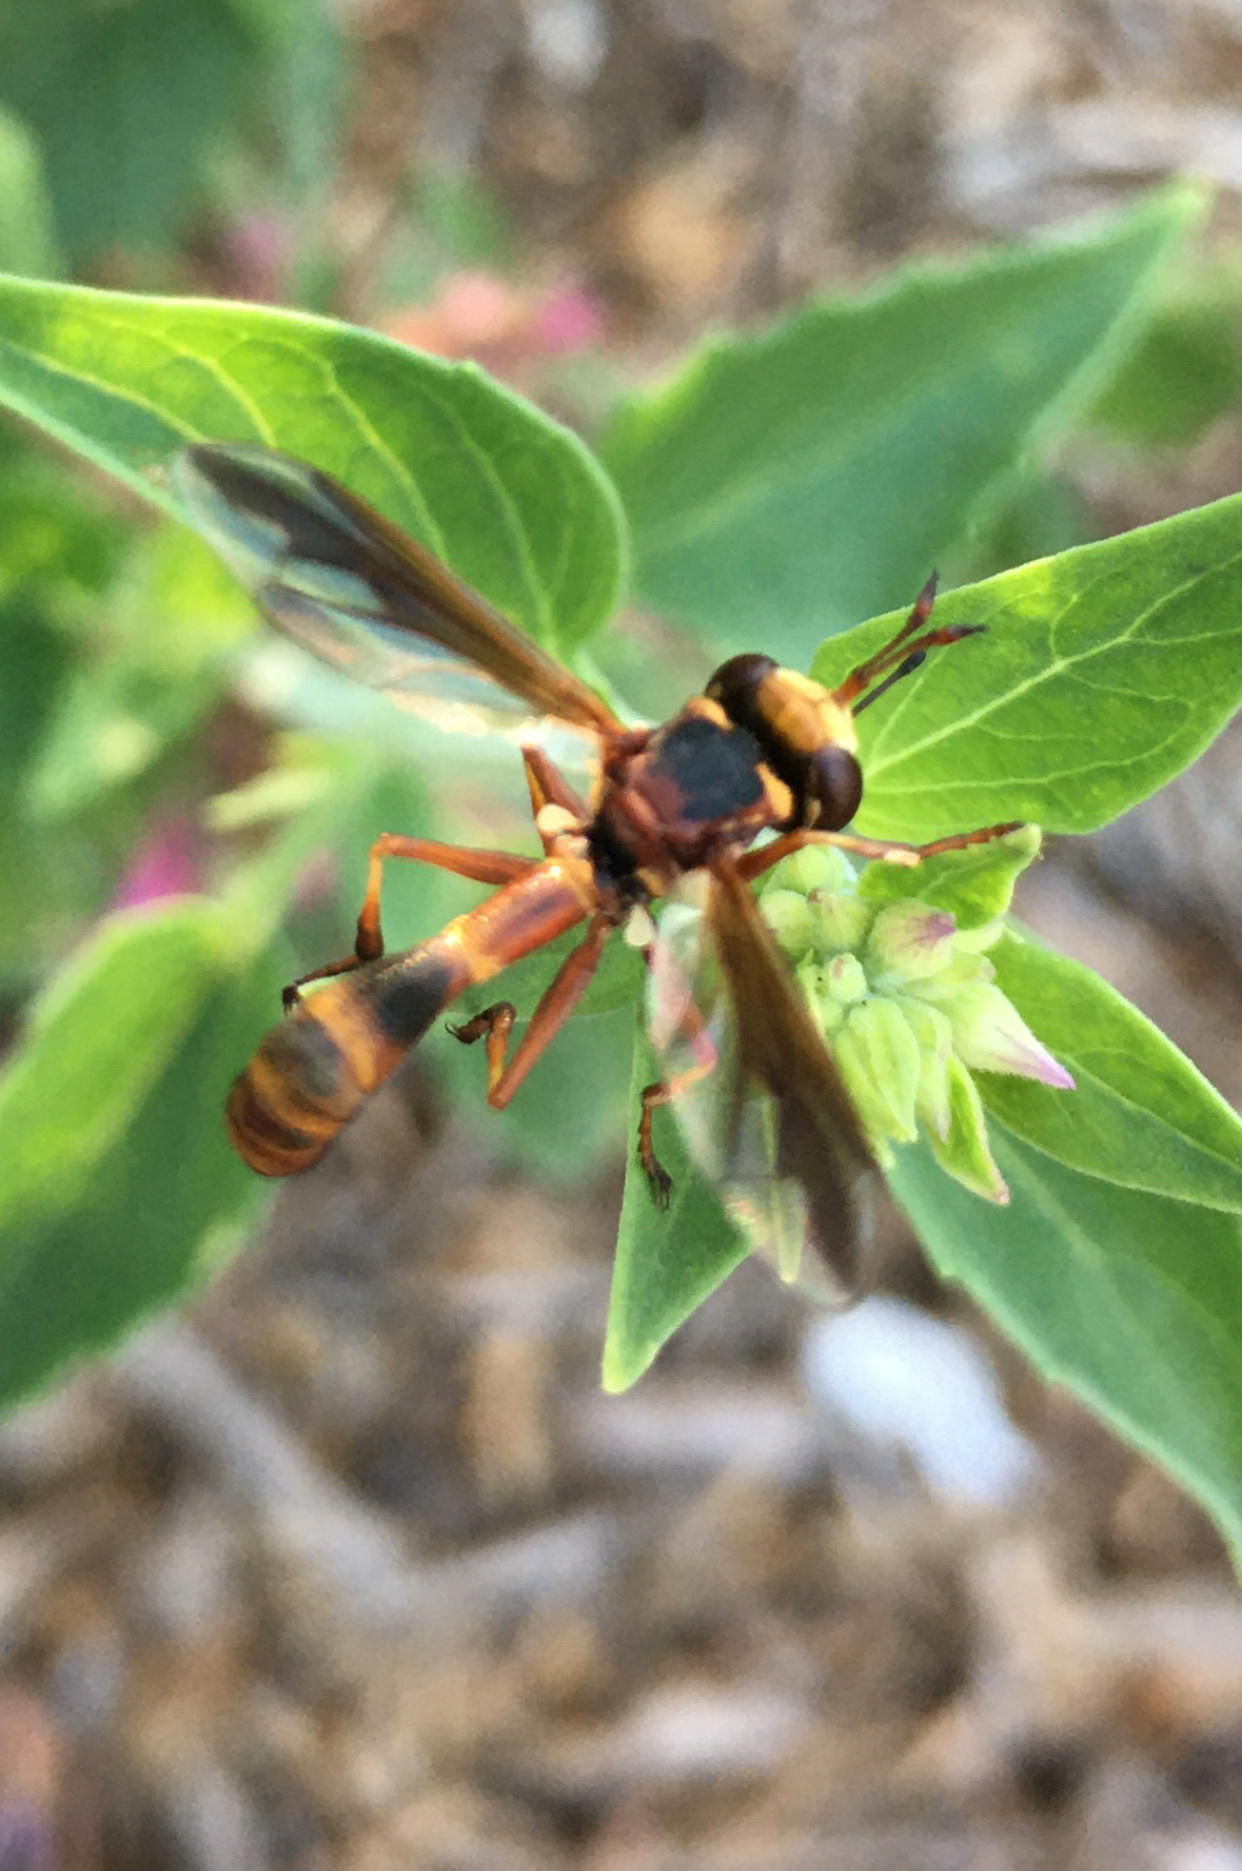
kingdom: Animalia
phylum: Arthropoda
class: Insecta
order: Diptera
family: Conopidae
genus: Physocephala
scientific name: Physocephala texana
